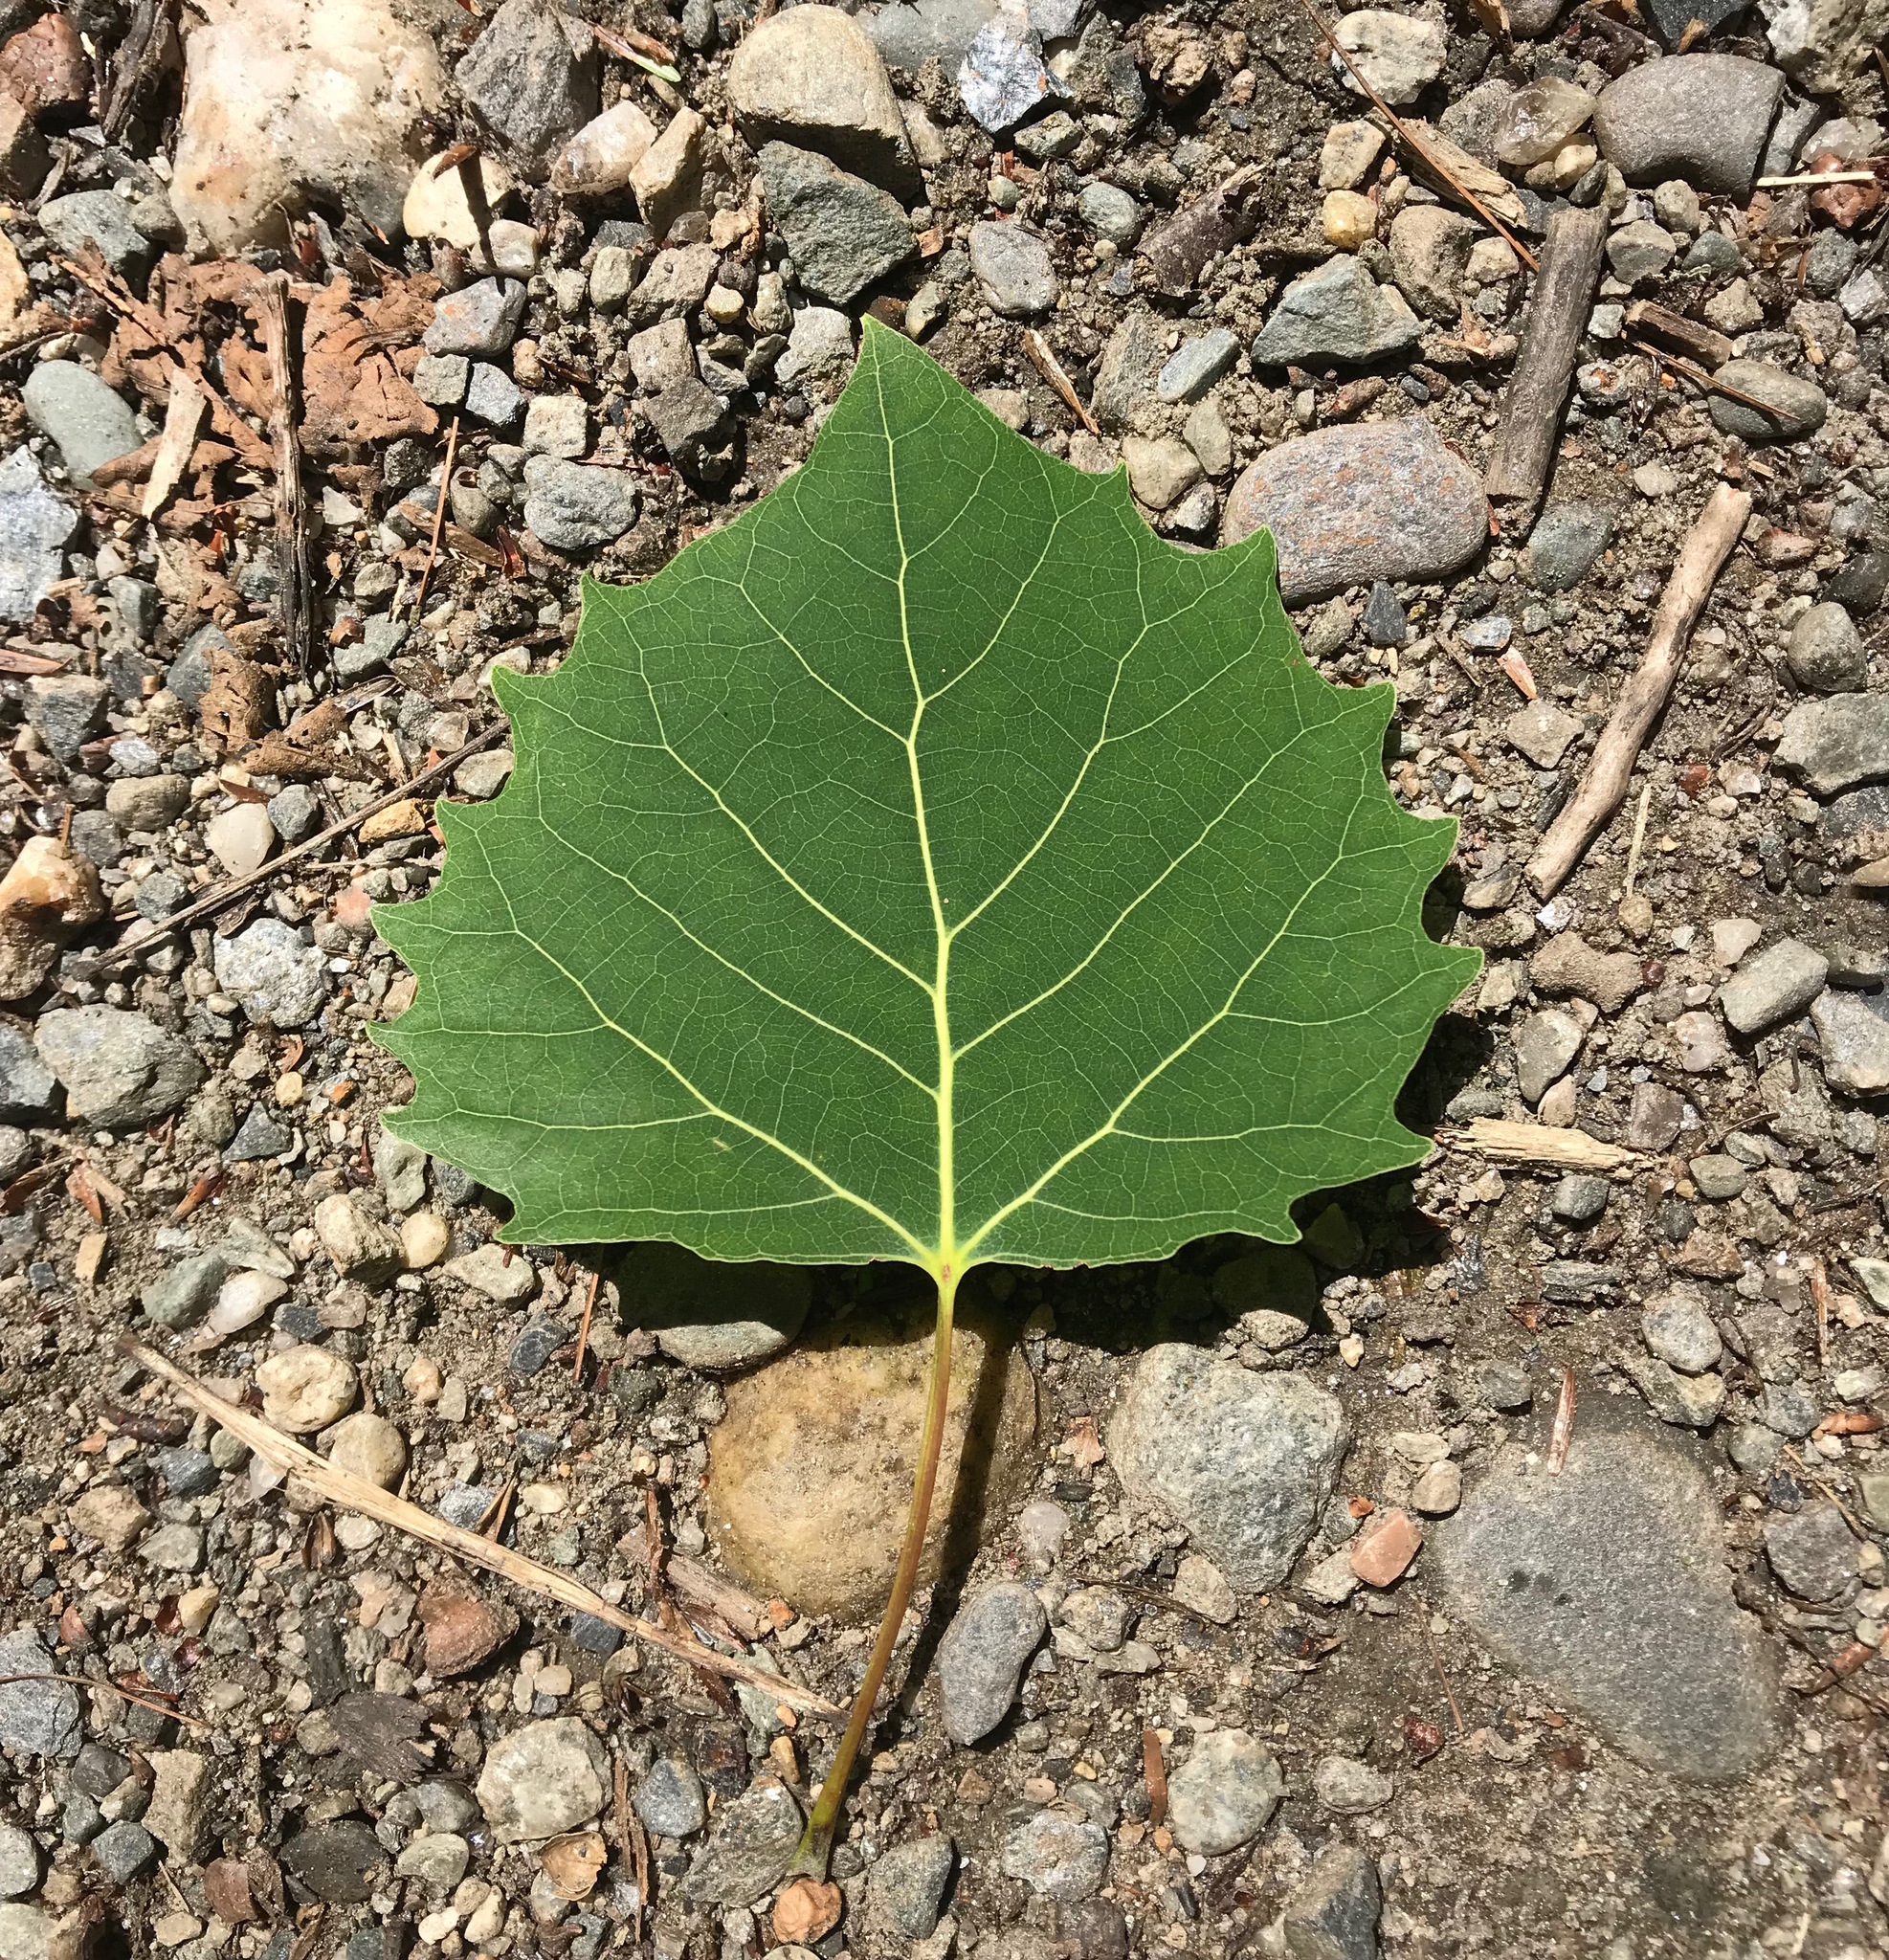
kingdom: Plantae
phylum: Tracheophyta
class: Magnoliopsida
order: Malpighiales
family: Salicaceae
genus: Populus
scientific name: Populus grandidentata
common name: Bigtooth aspen
